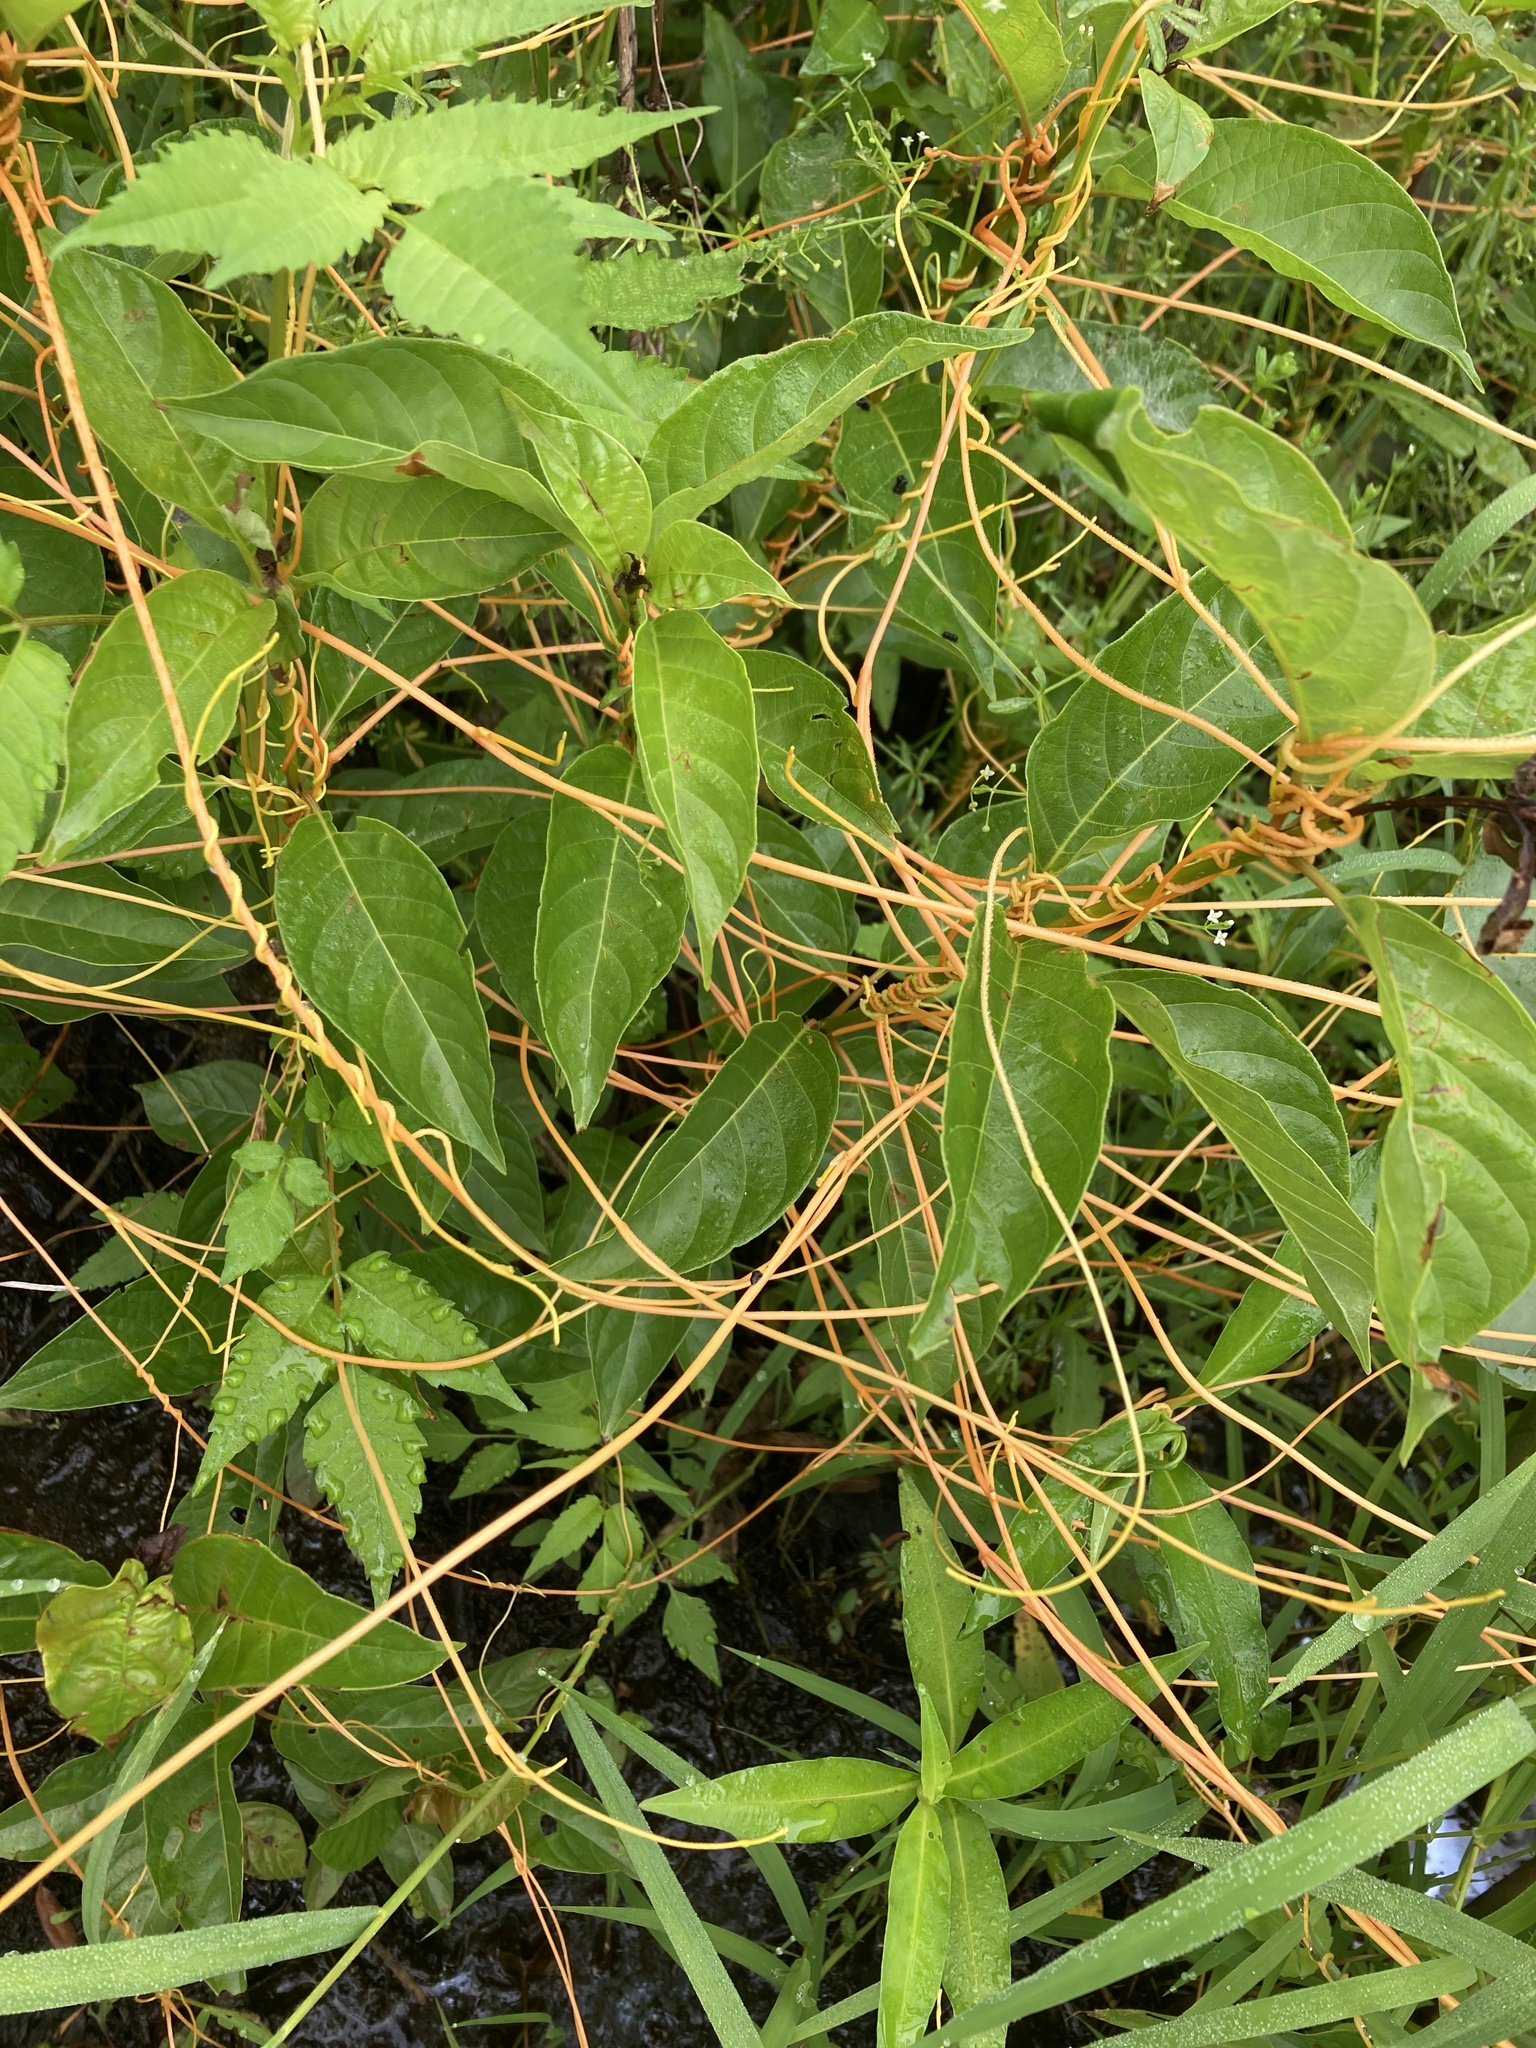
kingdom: Plantae
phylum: Tracheophyta
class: Magnoliopsida
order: Solanales
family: Convolvulaceae
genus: Cuscuta
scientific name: Cuscuta gronovii
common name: Common dodder
